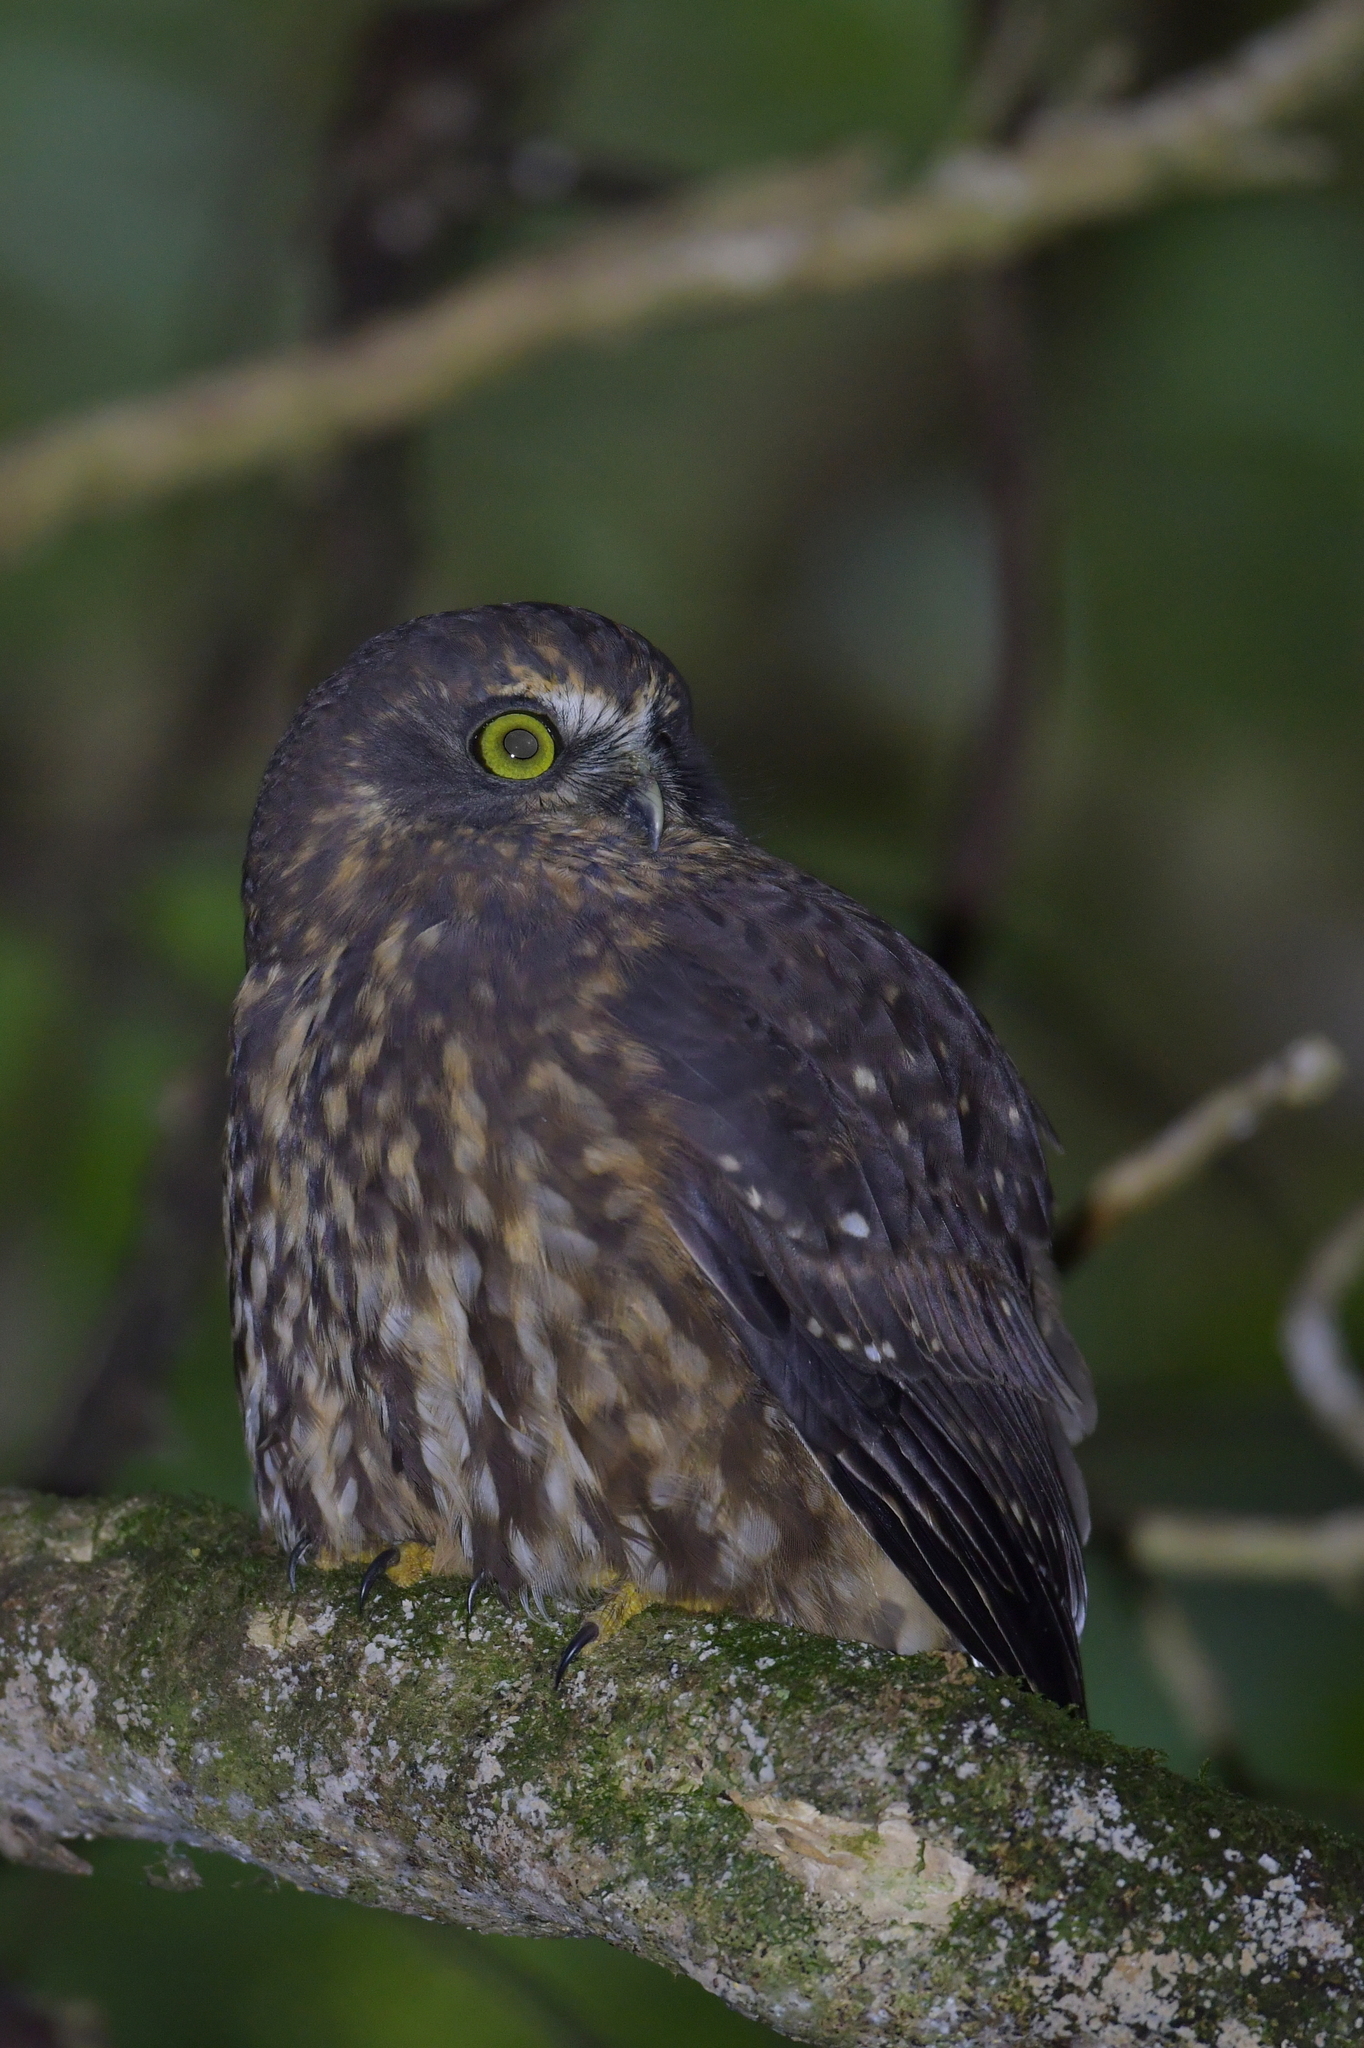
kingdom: Animalia
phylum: Chordata
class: Aves
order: Strigiformes
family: Strigidae
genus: Ninox
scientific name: Ninox novaeseelandiae
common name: Morepork
